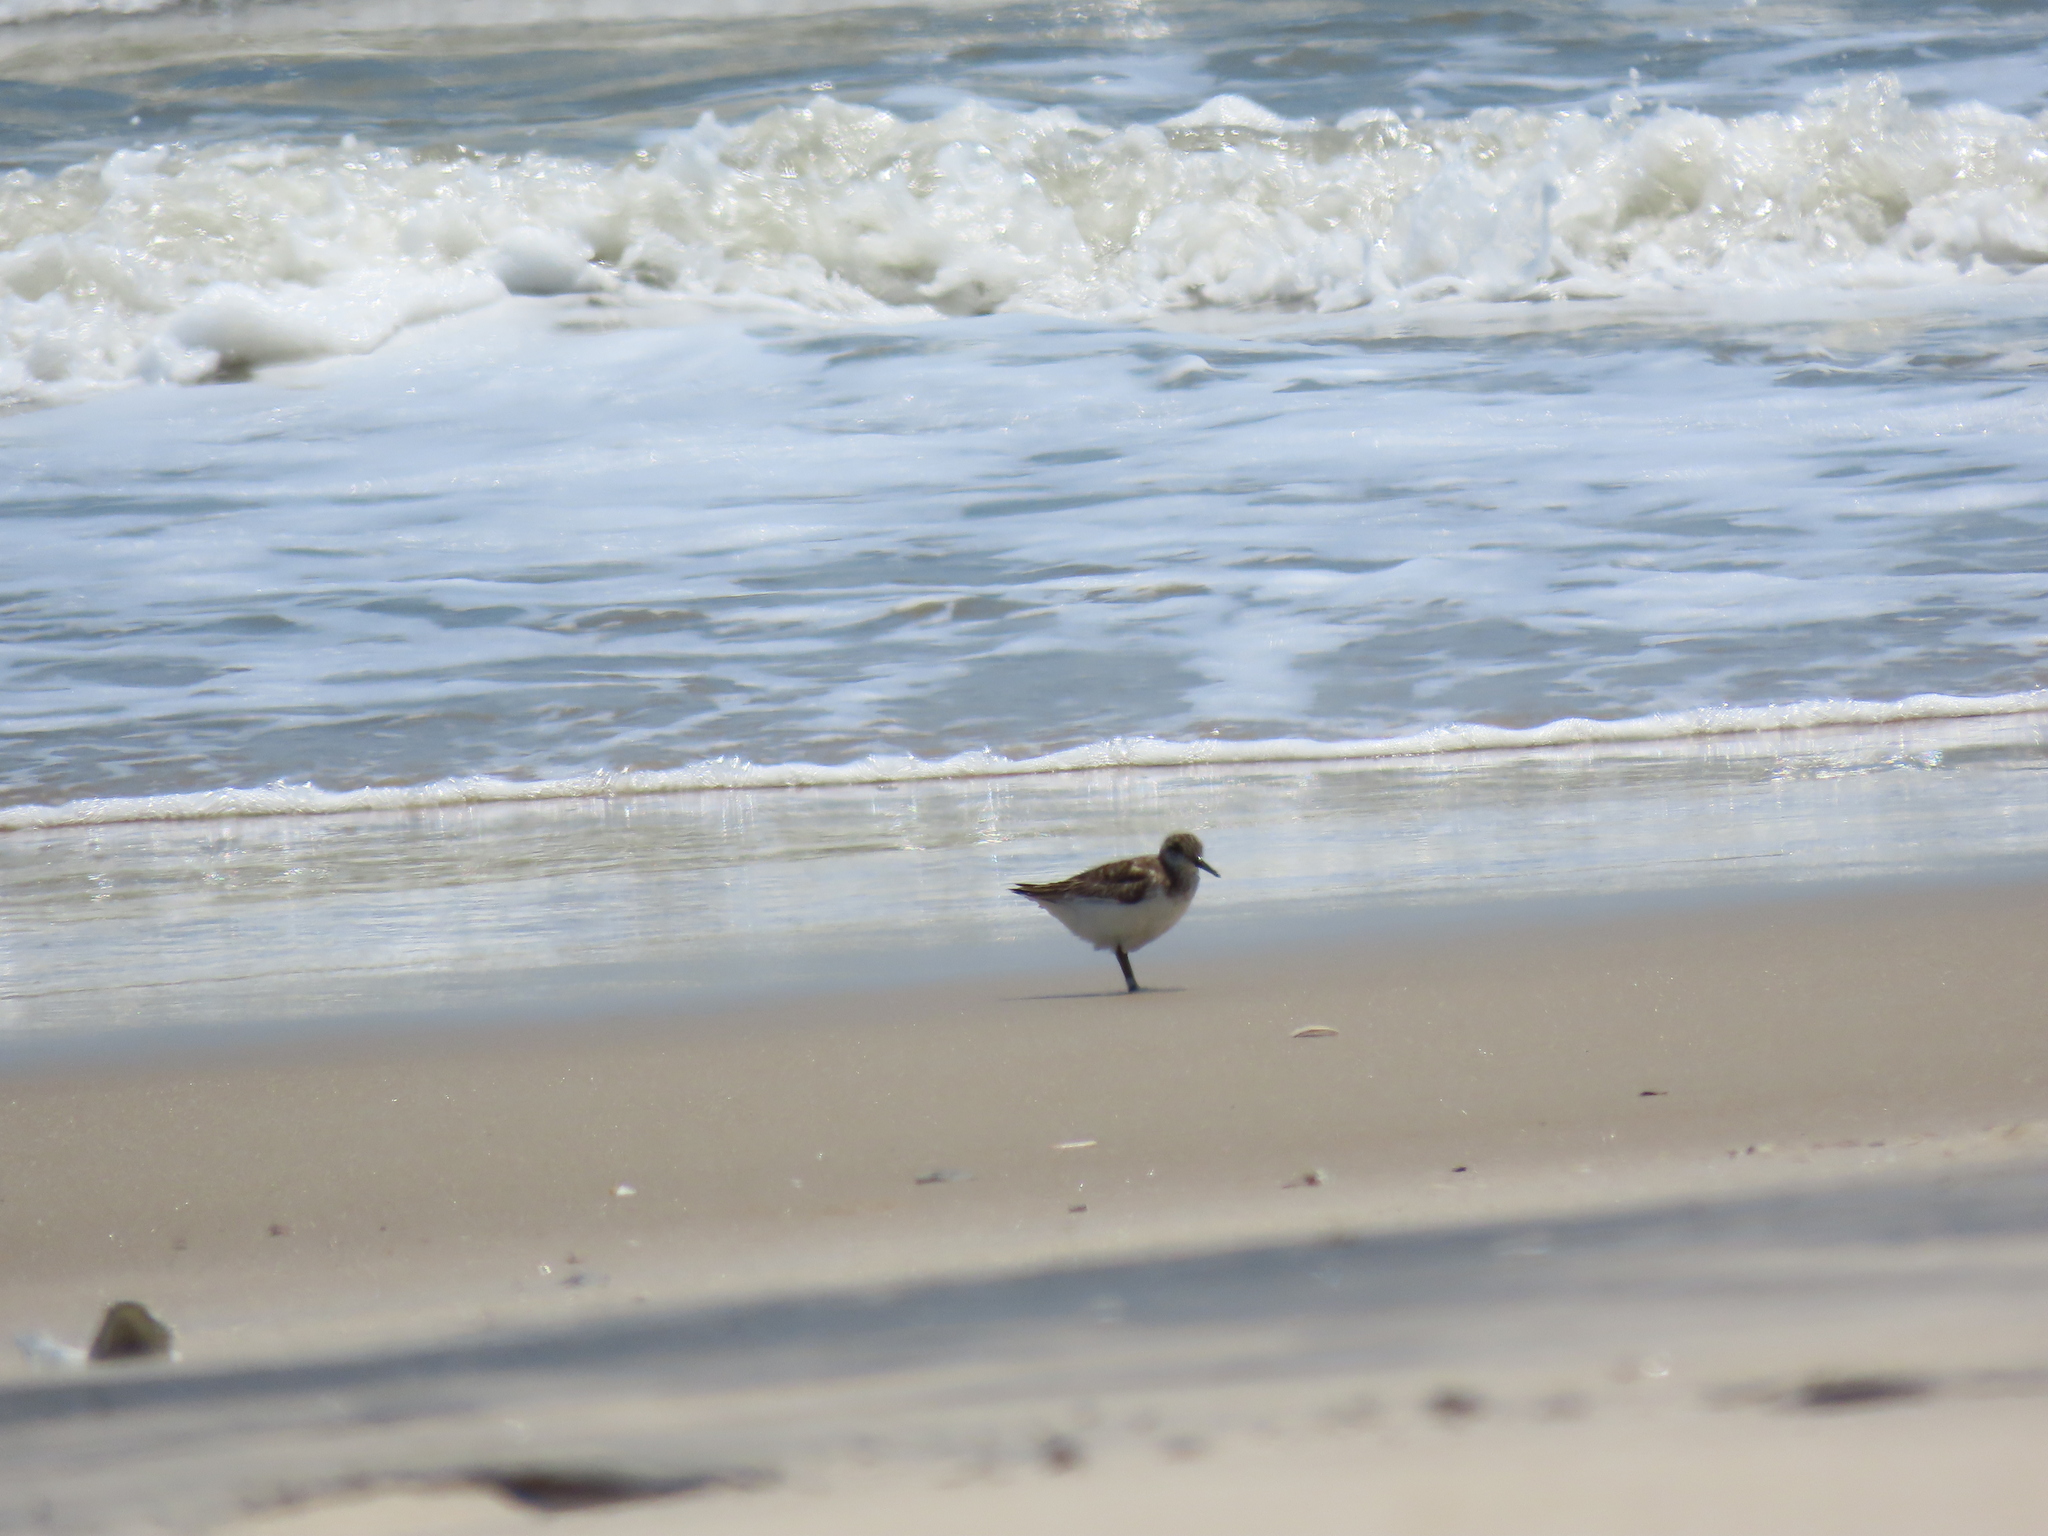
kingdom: Animalia
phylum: Chordata
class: Aves
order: Charadriiformes
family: Scolopacidae
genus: Calidris
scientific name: Calidris alba
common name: Sanderling
